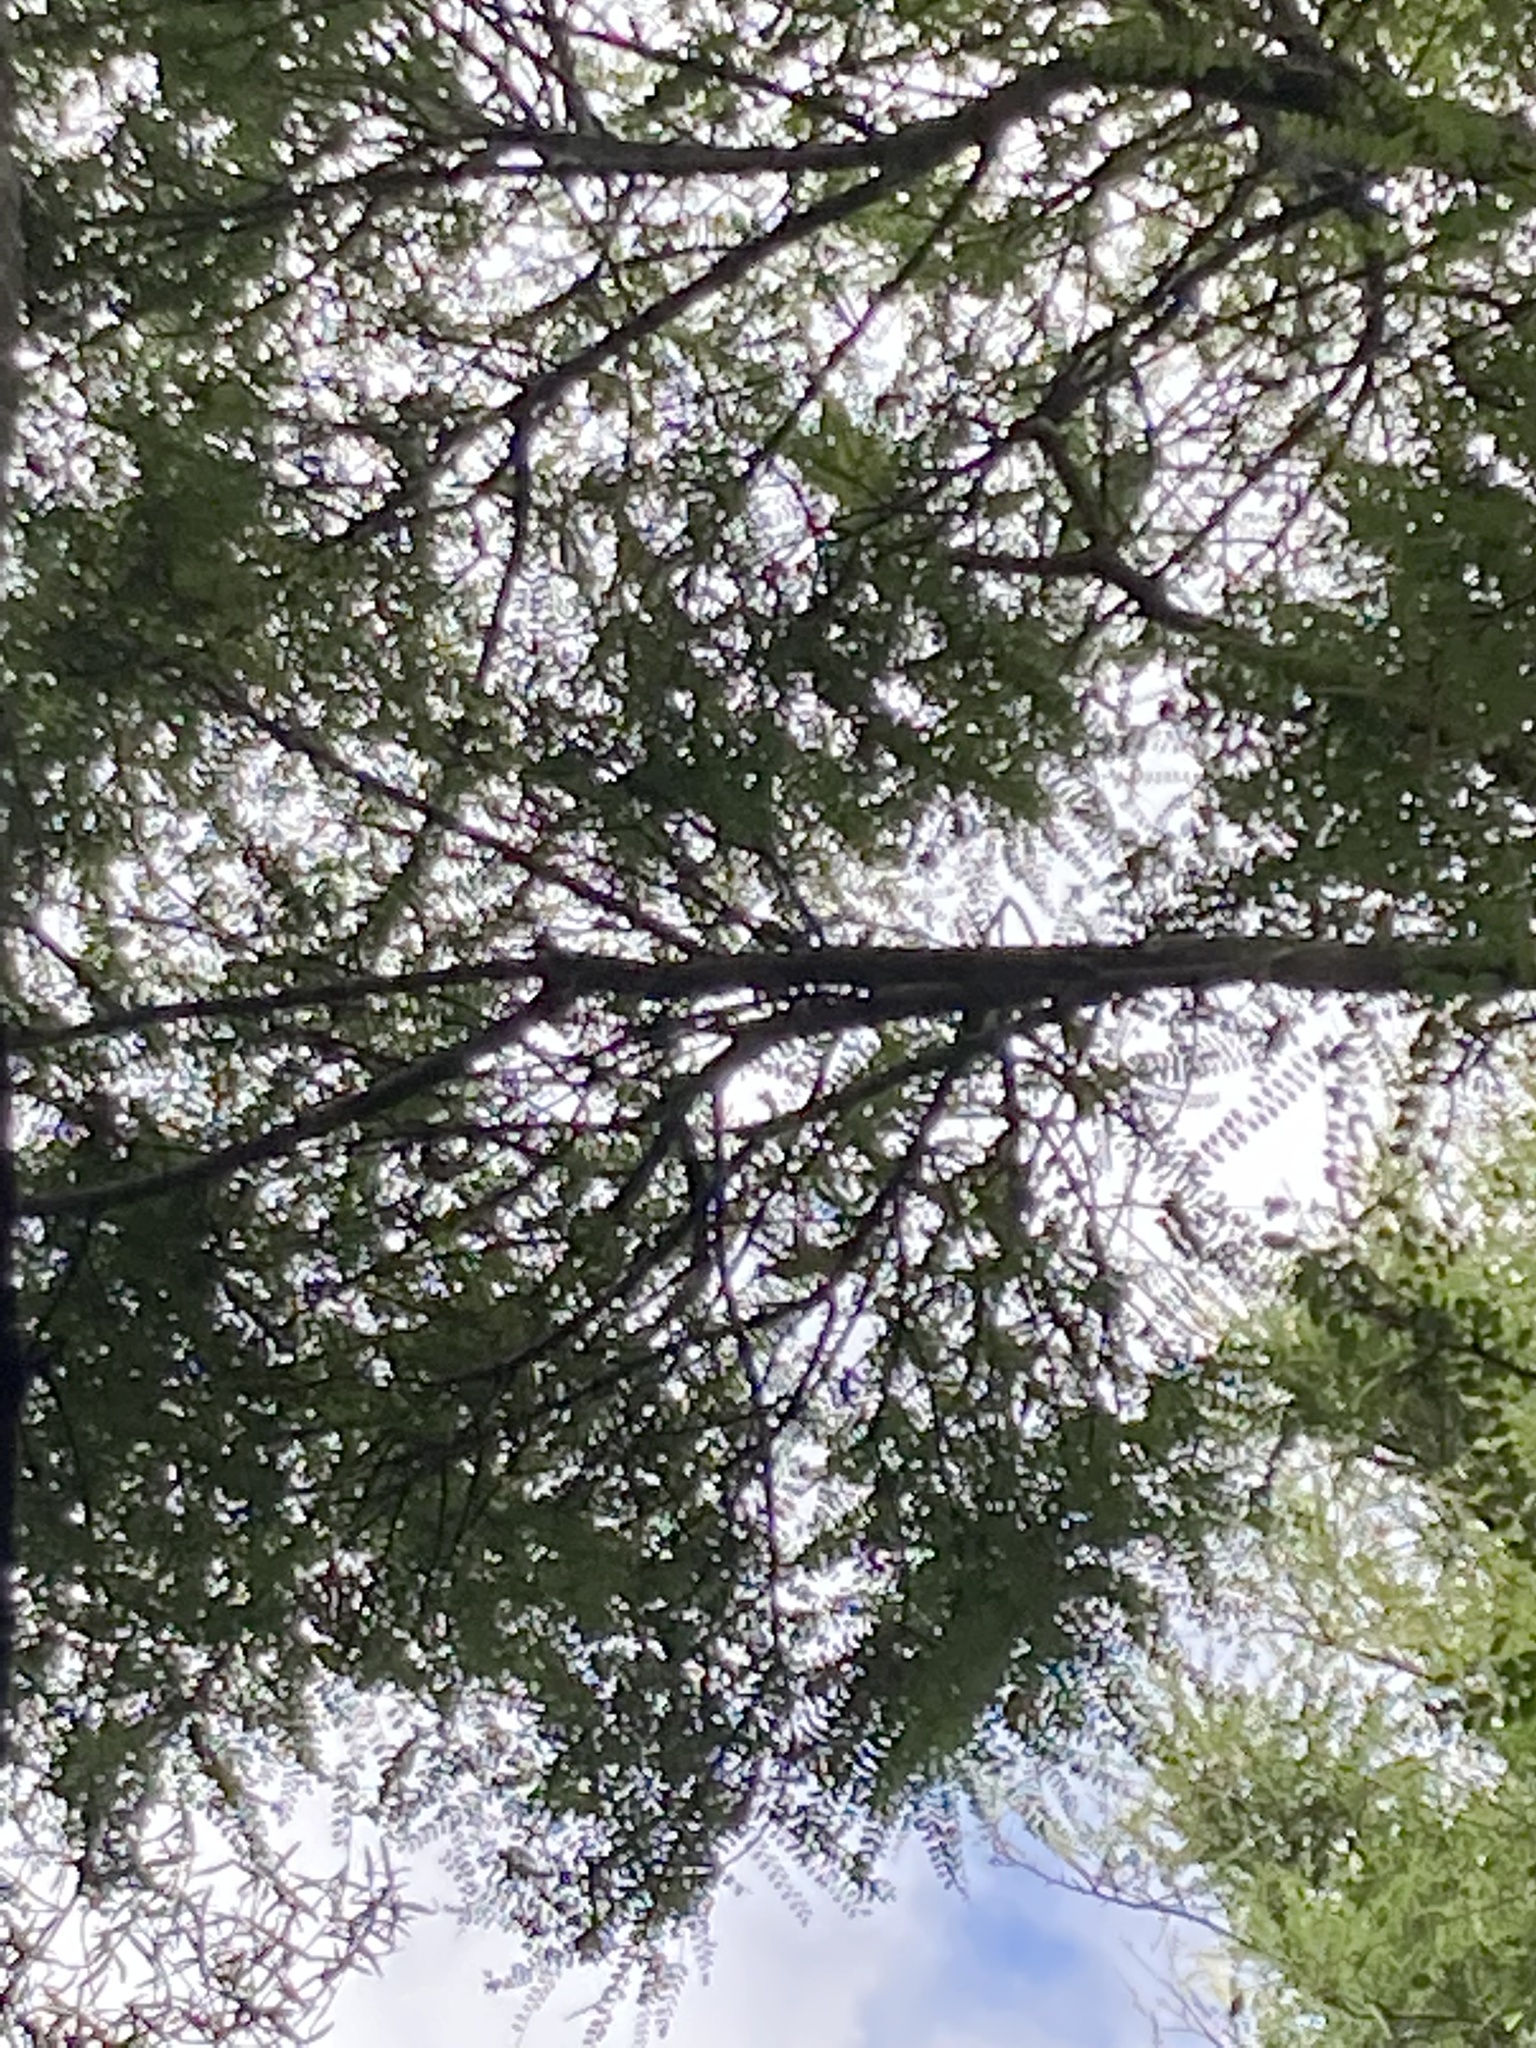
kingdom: Plantae
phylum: Tracheophyta
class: Magnoliopsida
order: Fabales
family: Fabaceae
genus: Sophora
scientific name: Sophora microphylla
